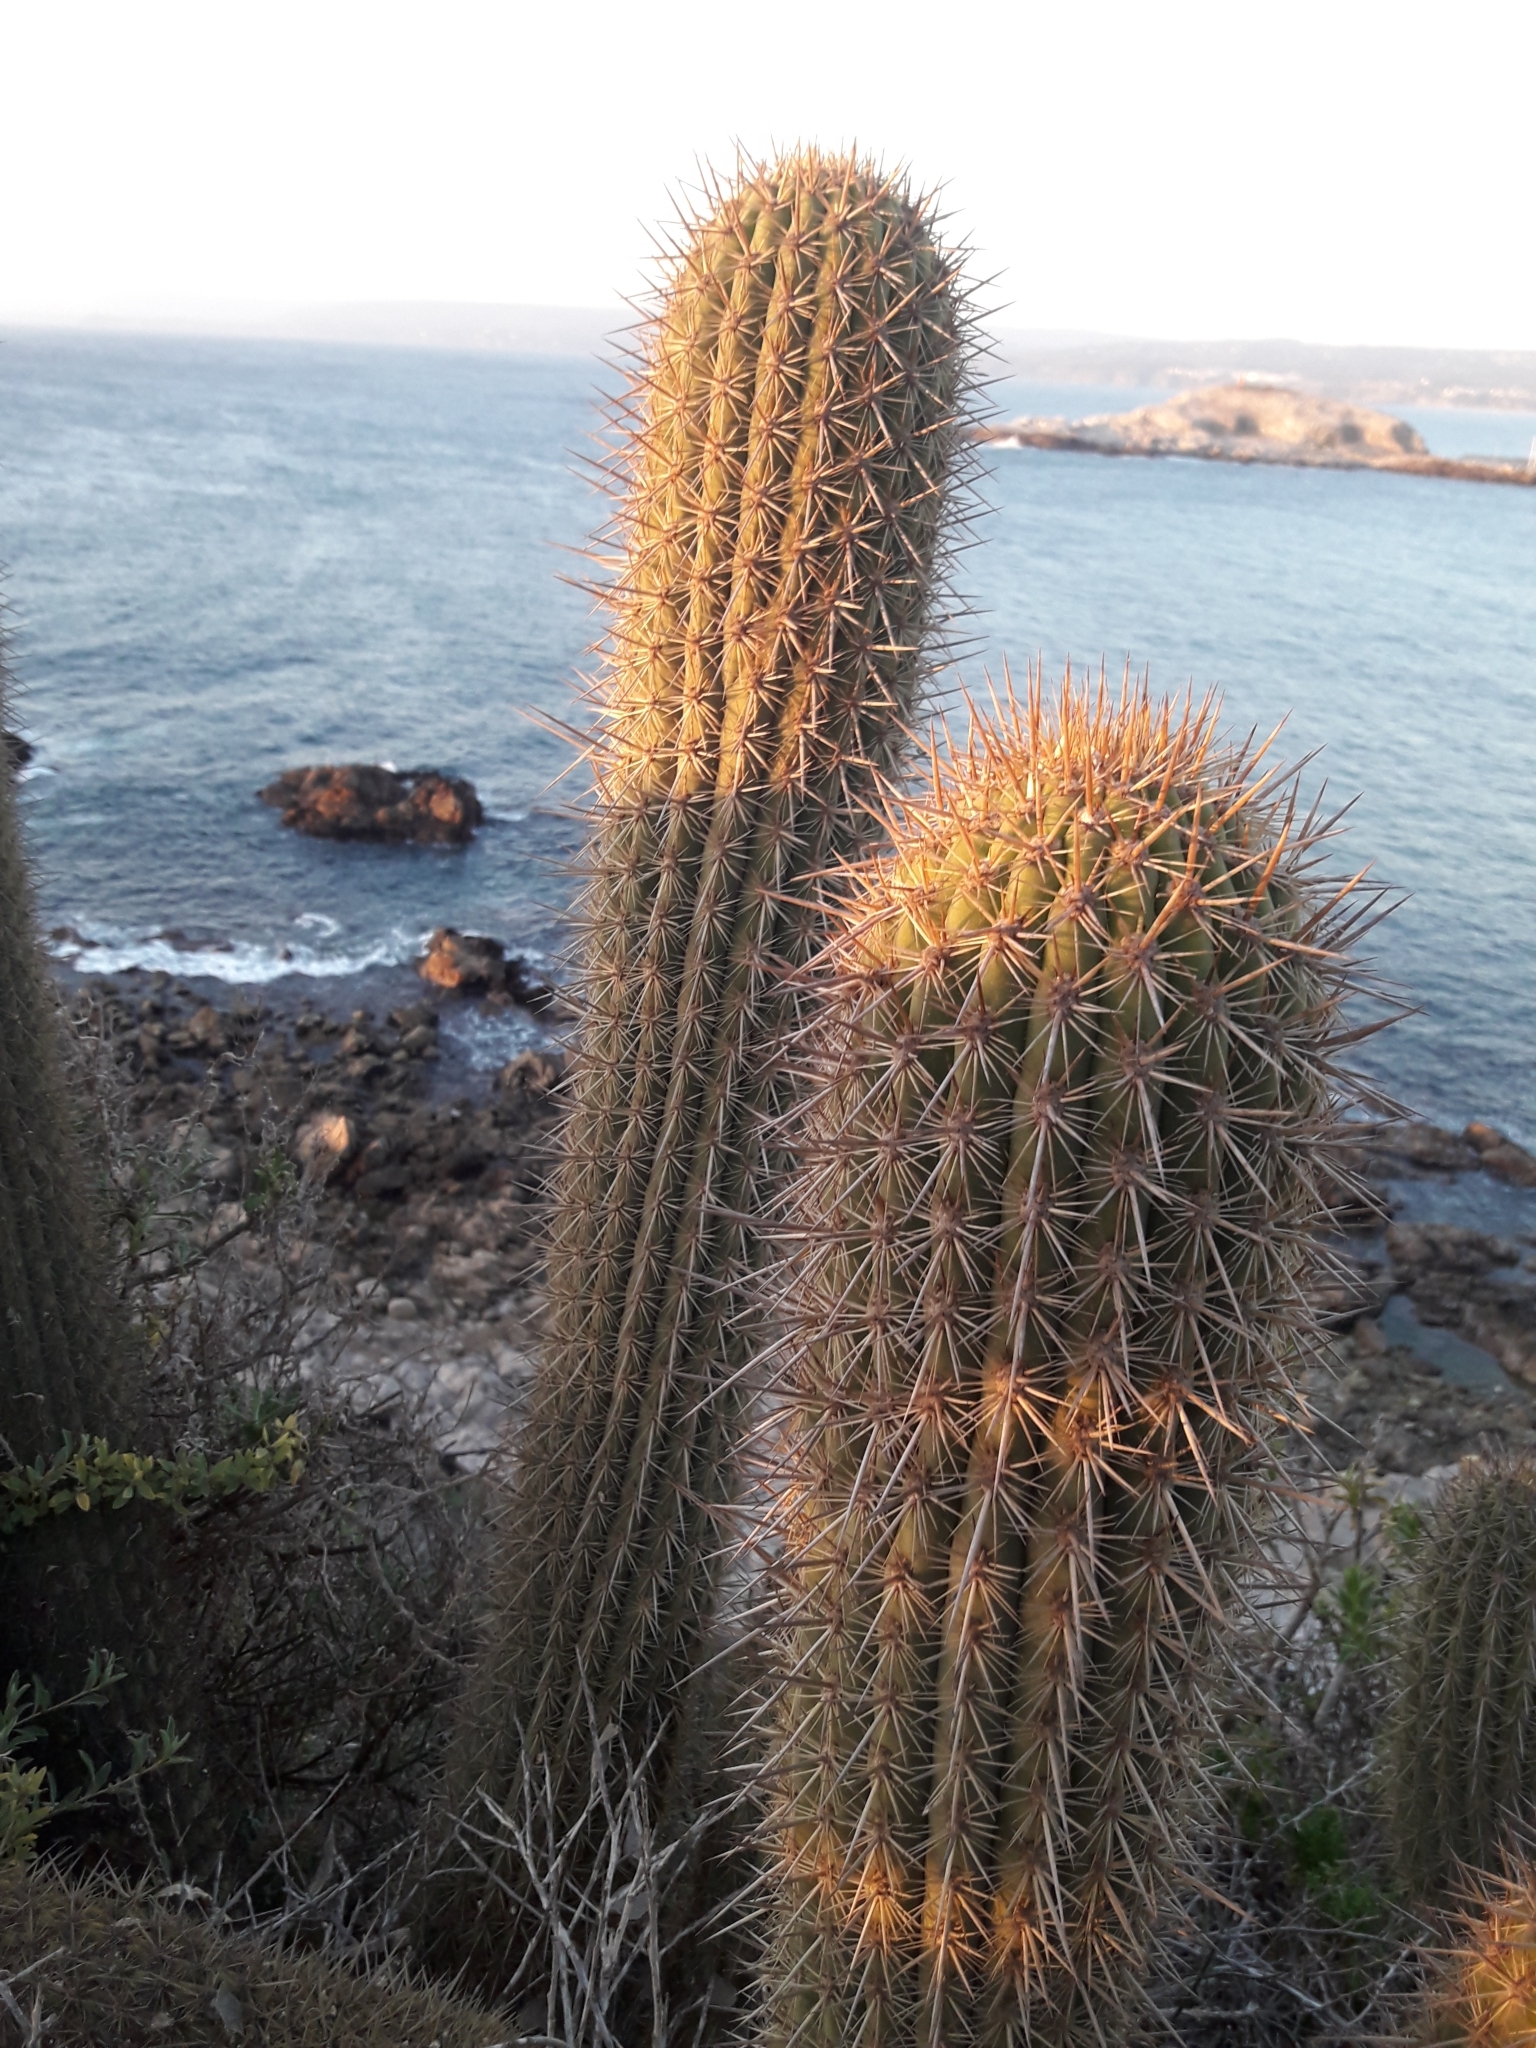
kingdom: Plantae
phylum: Tracheophyta
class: Magnoliopsida
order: Caryophyllales
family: Cactaceae
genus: Leucostele
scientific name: Leucostele litoralis
